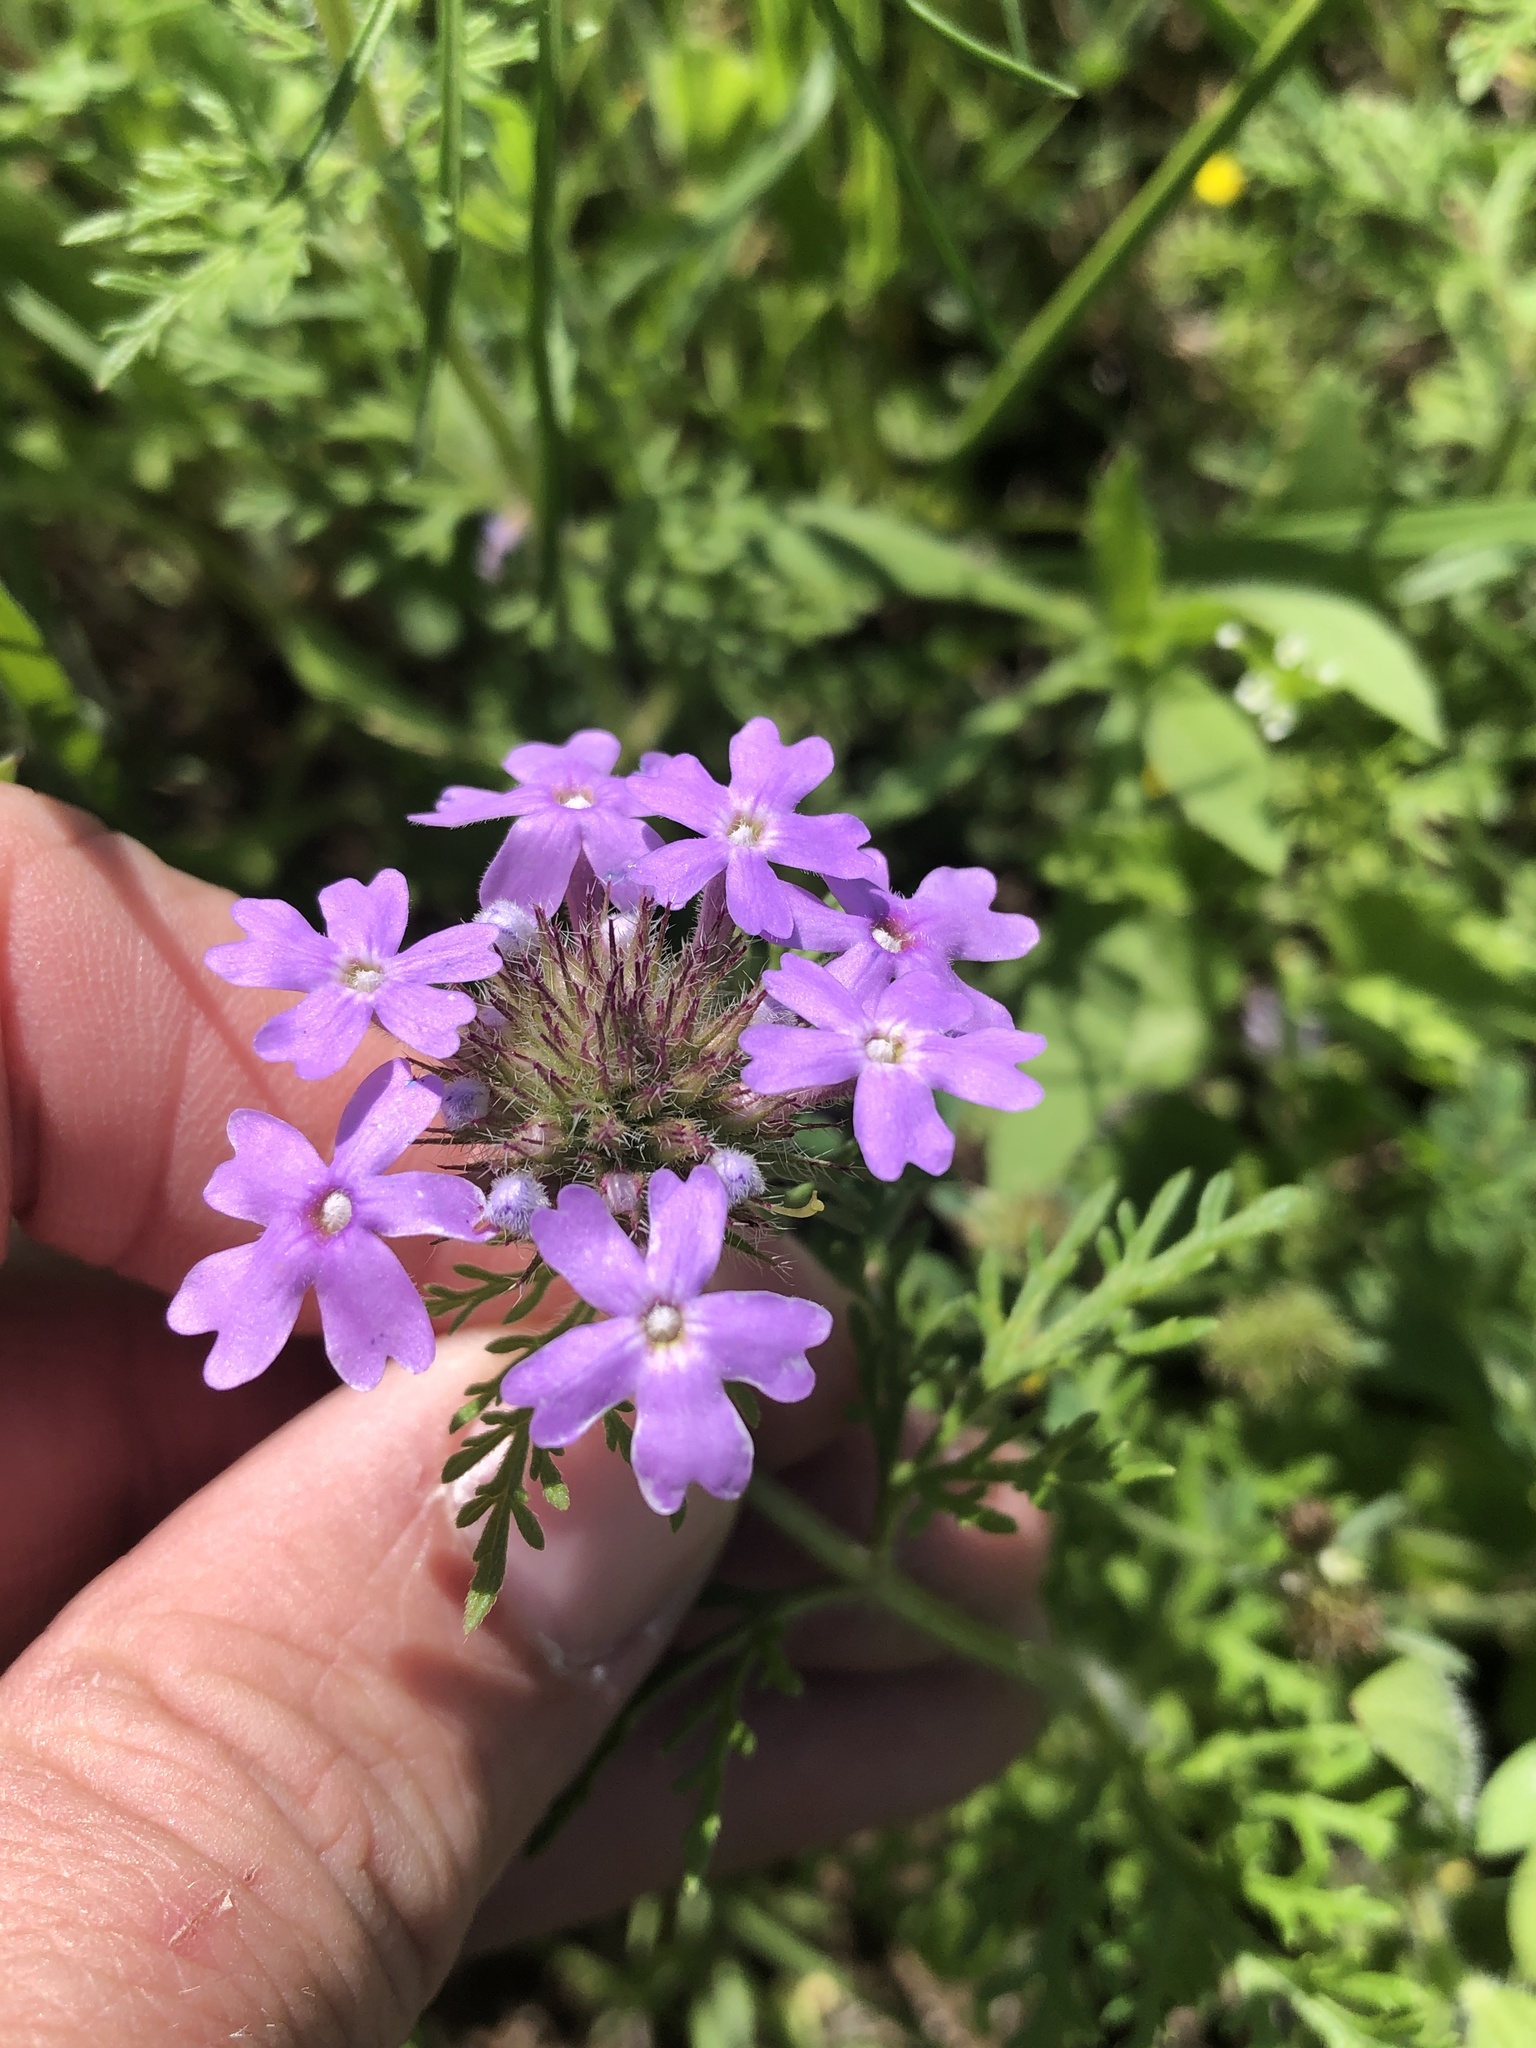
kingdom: Plantae
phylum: Tracheophyta
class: Magnoliopsida
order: Lamiales
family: Verbenaceae
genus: Verbena
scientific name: Verbena bipinnatifida
